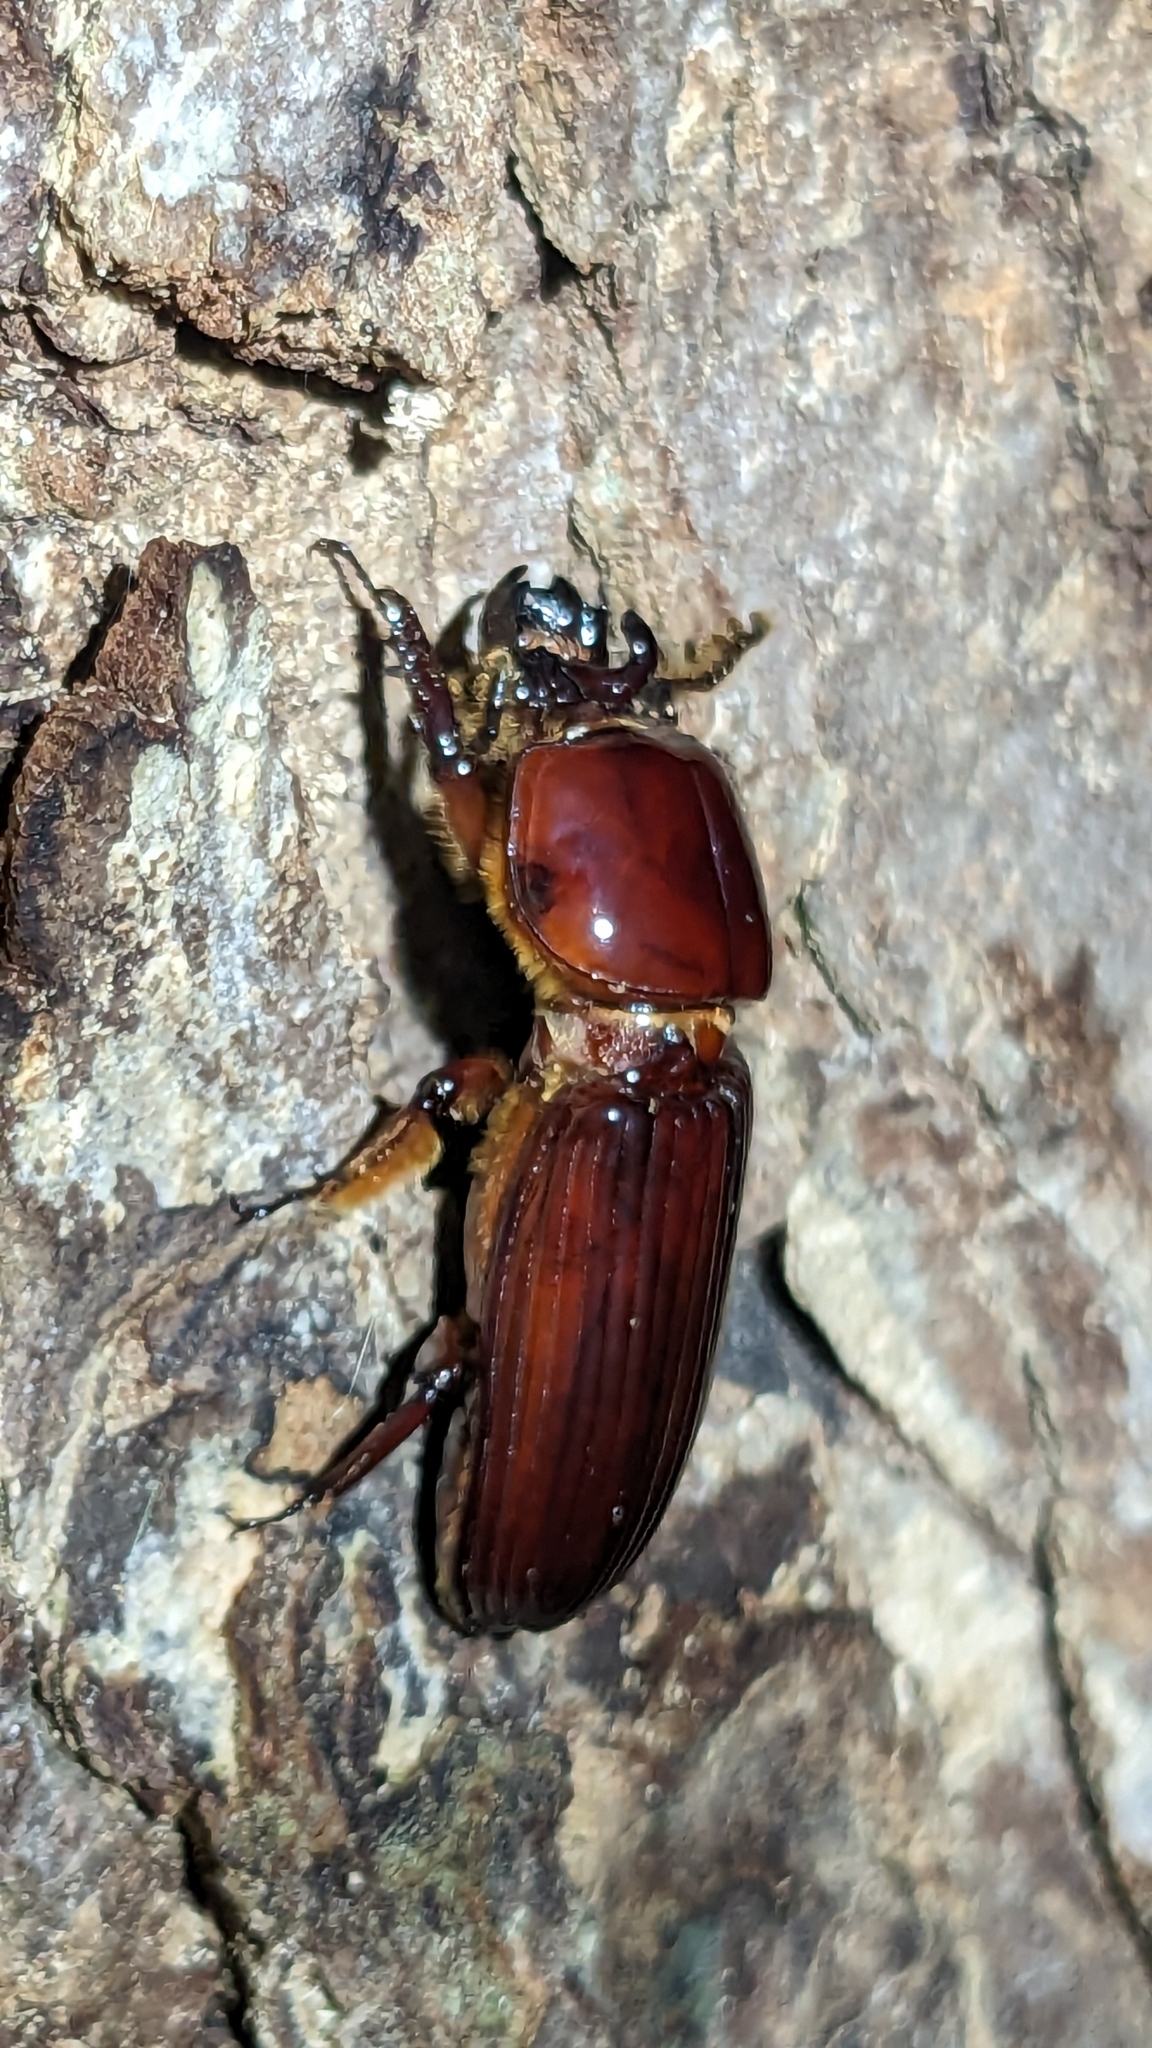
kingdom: Animalia
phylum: Arthropoda
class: Insecta
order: Coleoptera
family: Passalidae
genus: Odontotaenius
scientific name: Odontotaenius disjunctus
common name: Patent leather beetle
